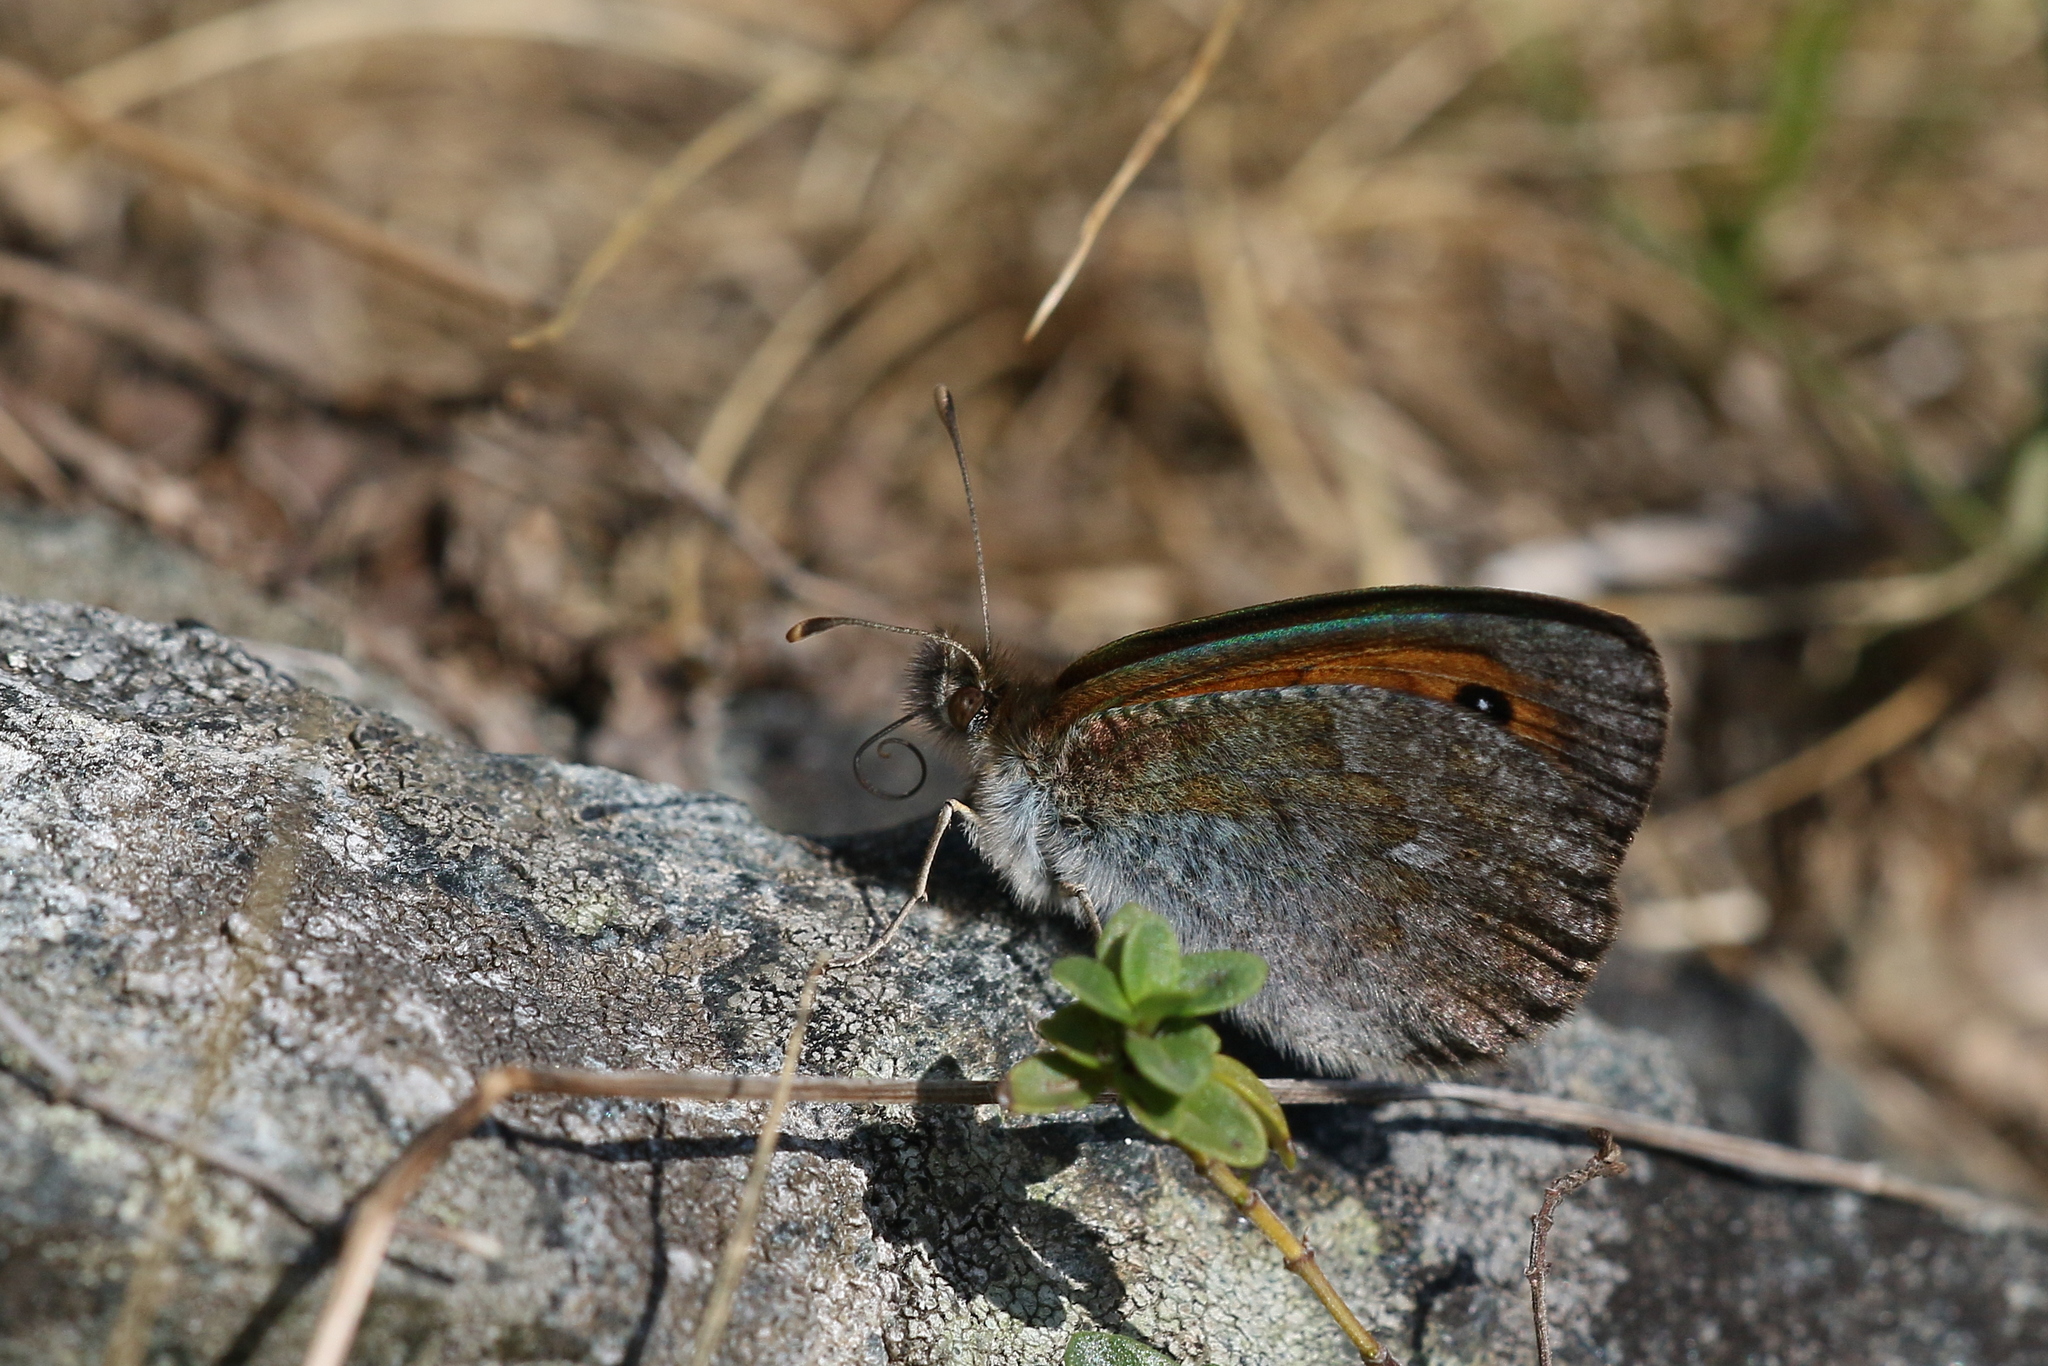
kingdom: Animalia
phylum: Arthropoda
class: Insecta
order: Lepidoptera
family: Nymphalidae
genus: Erebia
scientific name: Erebia cassioides
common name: Common brassy ringlet
